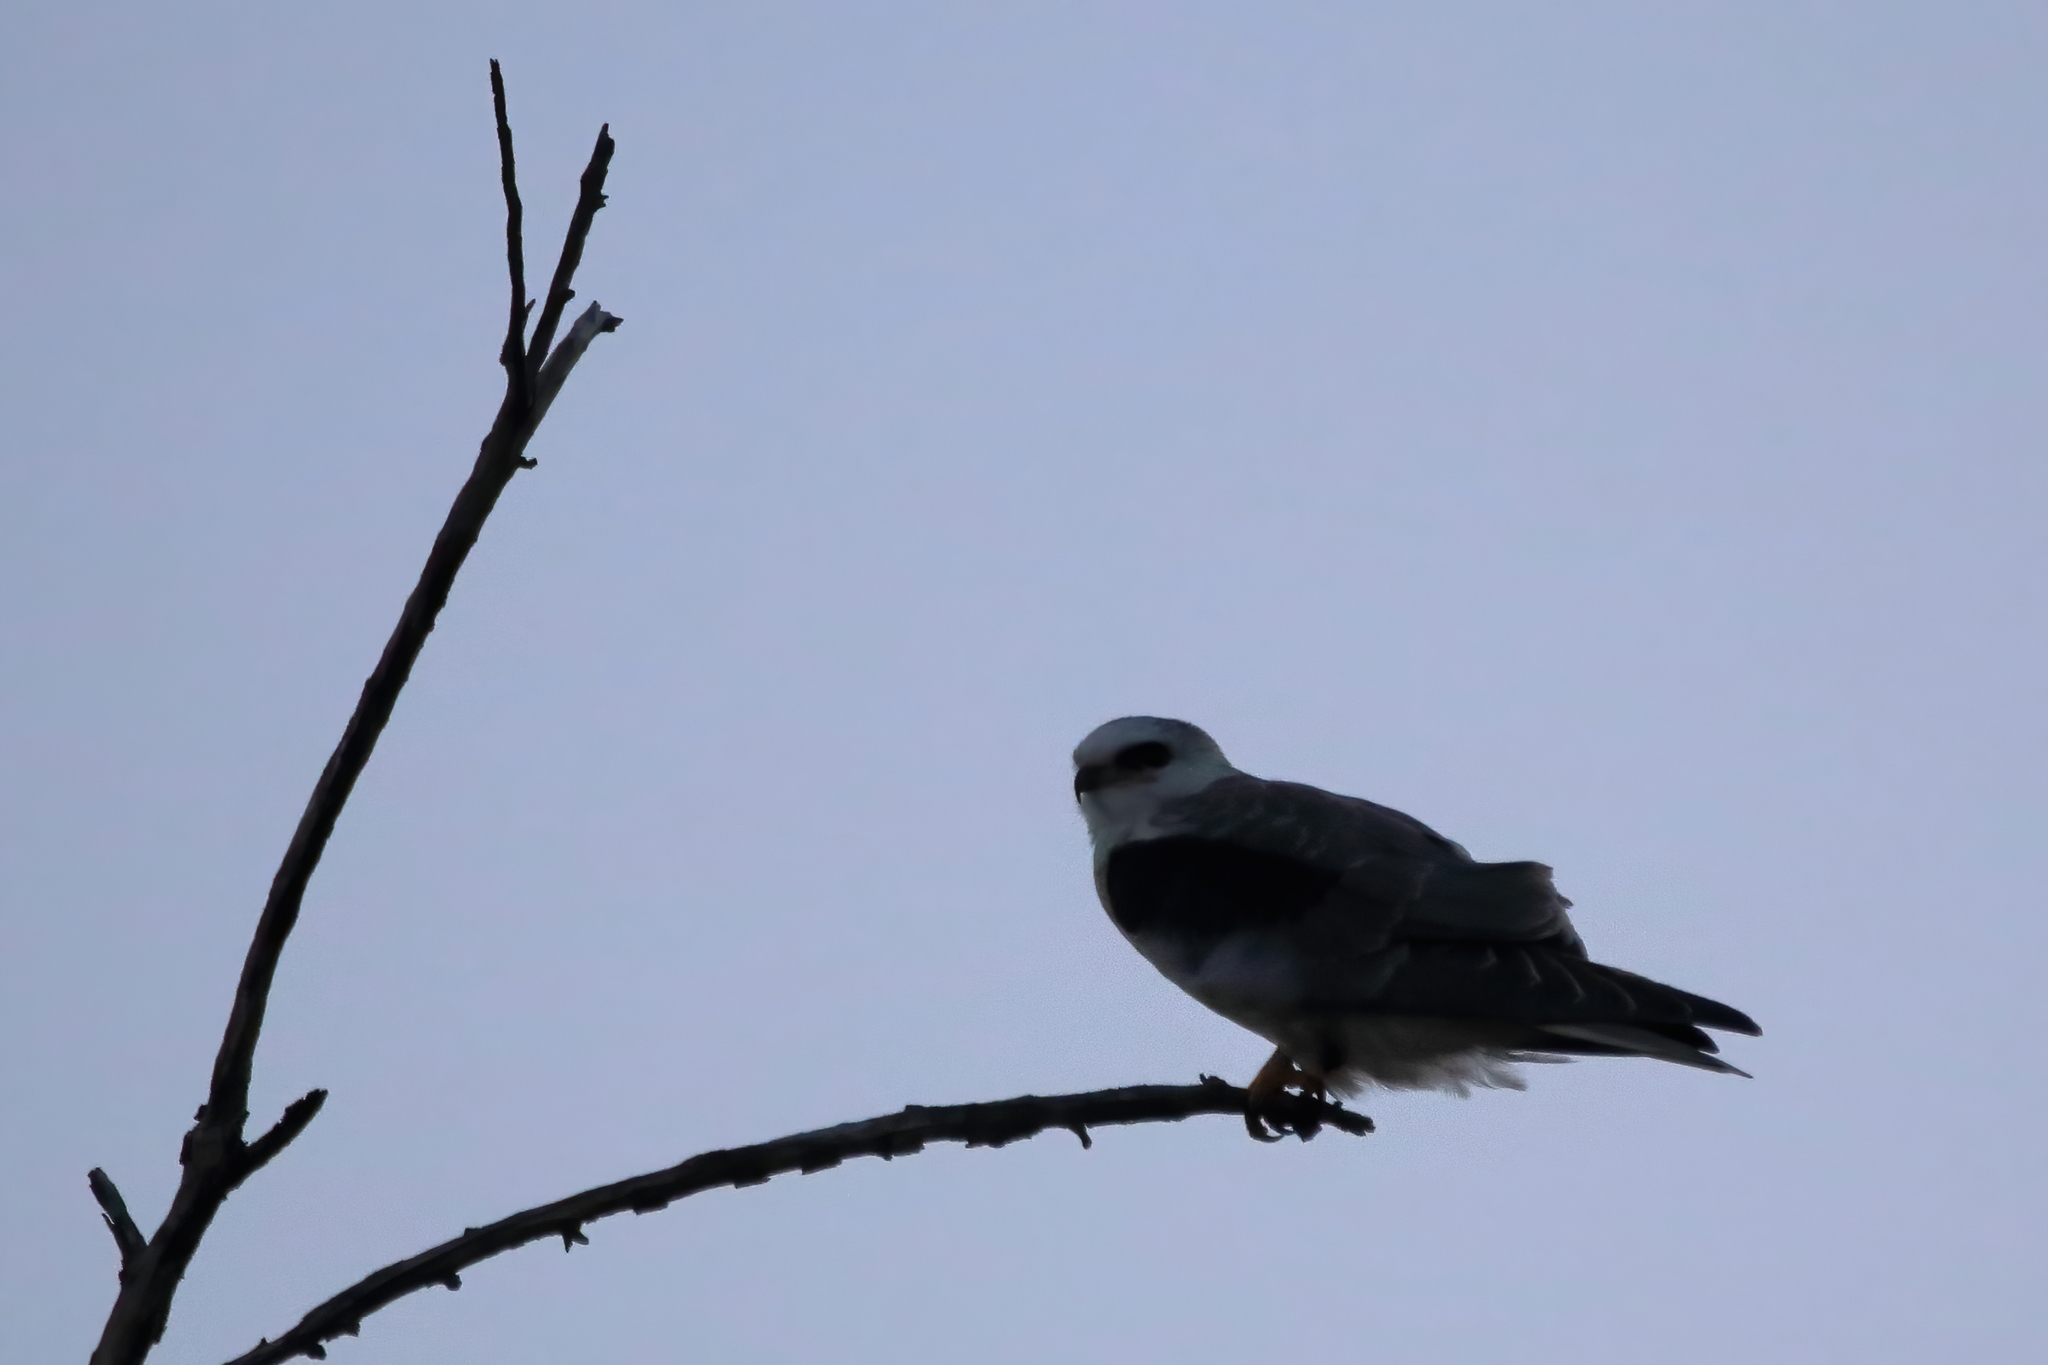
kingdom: Animalia
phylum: Chordata
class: Aves
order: Accipitriformes
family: Accipitridae
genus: Elanus
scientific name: Elanus leucurus
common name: White-tailed kite
